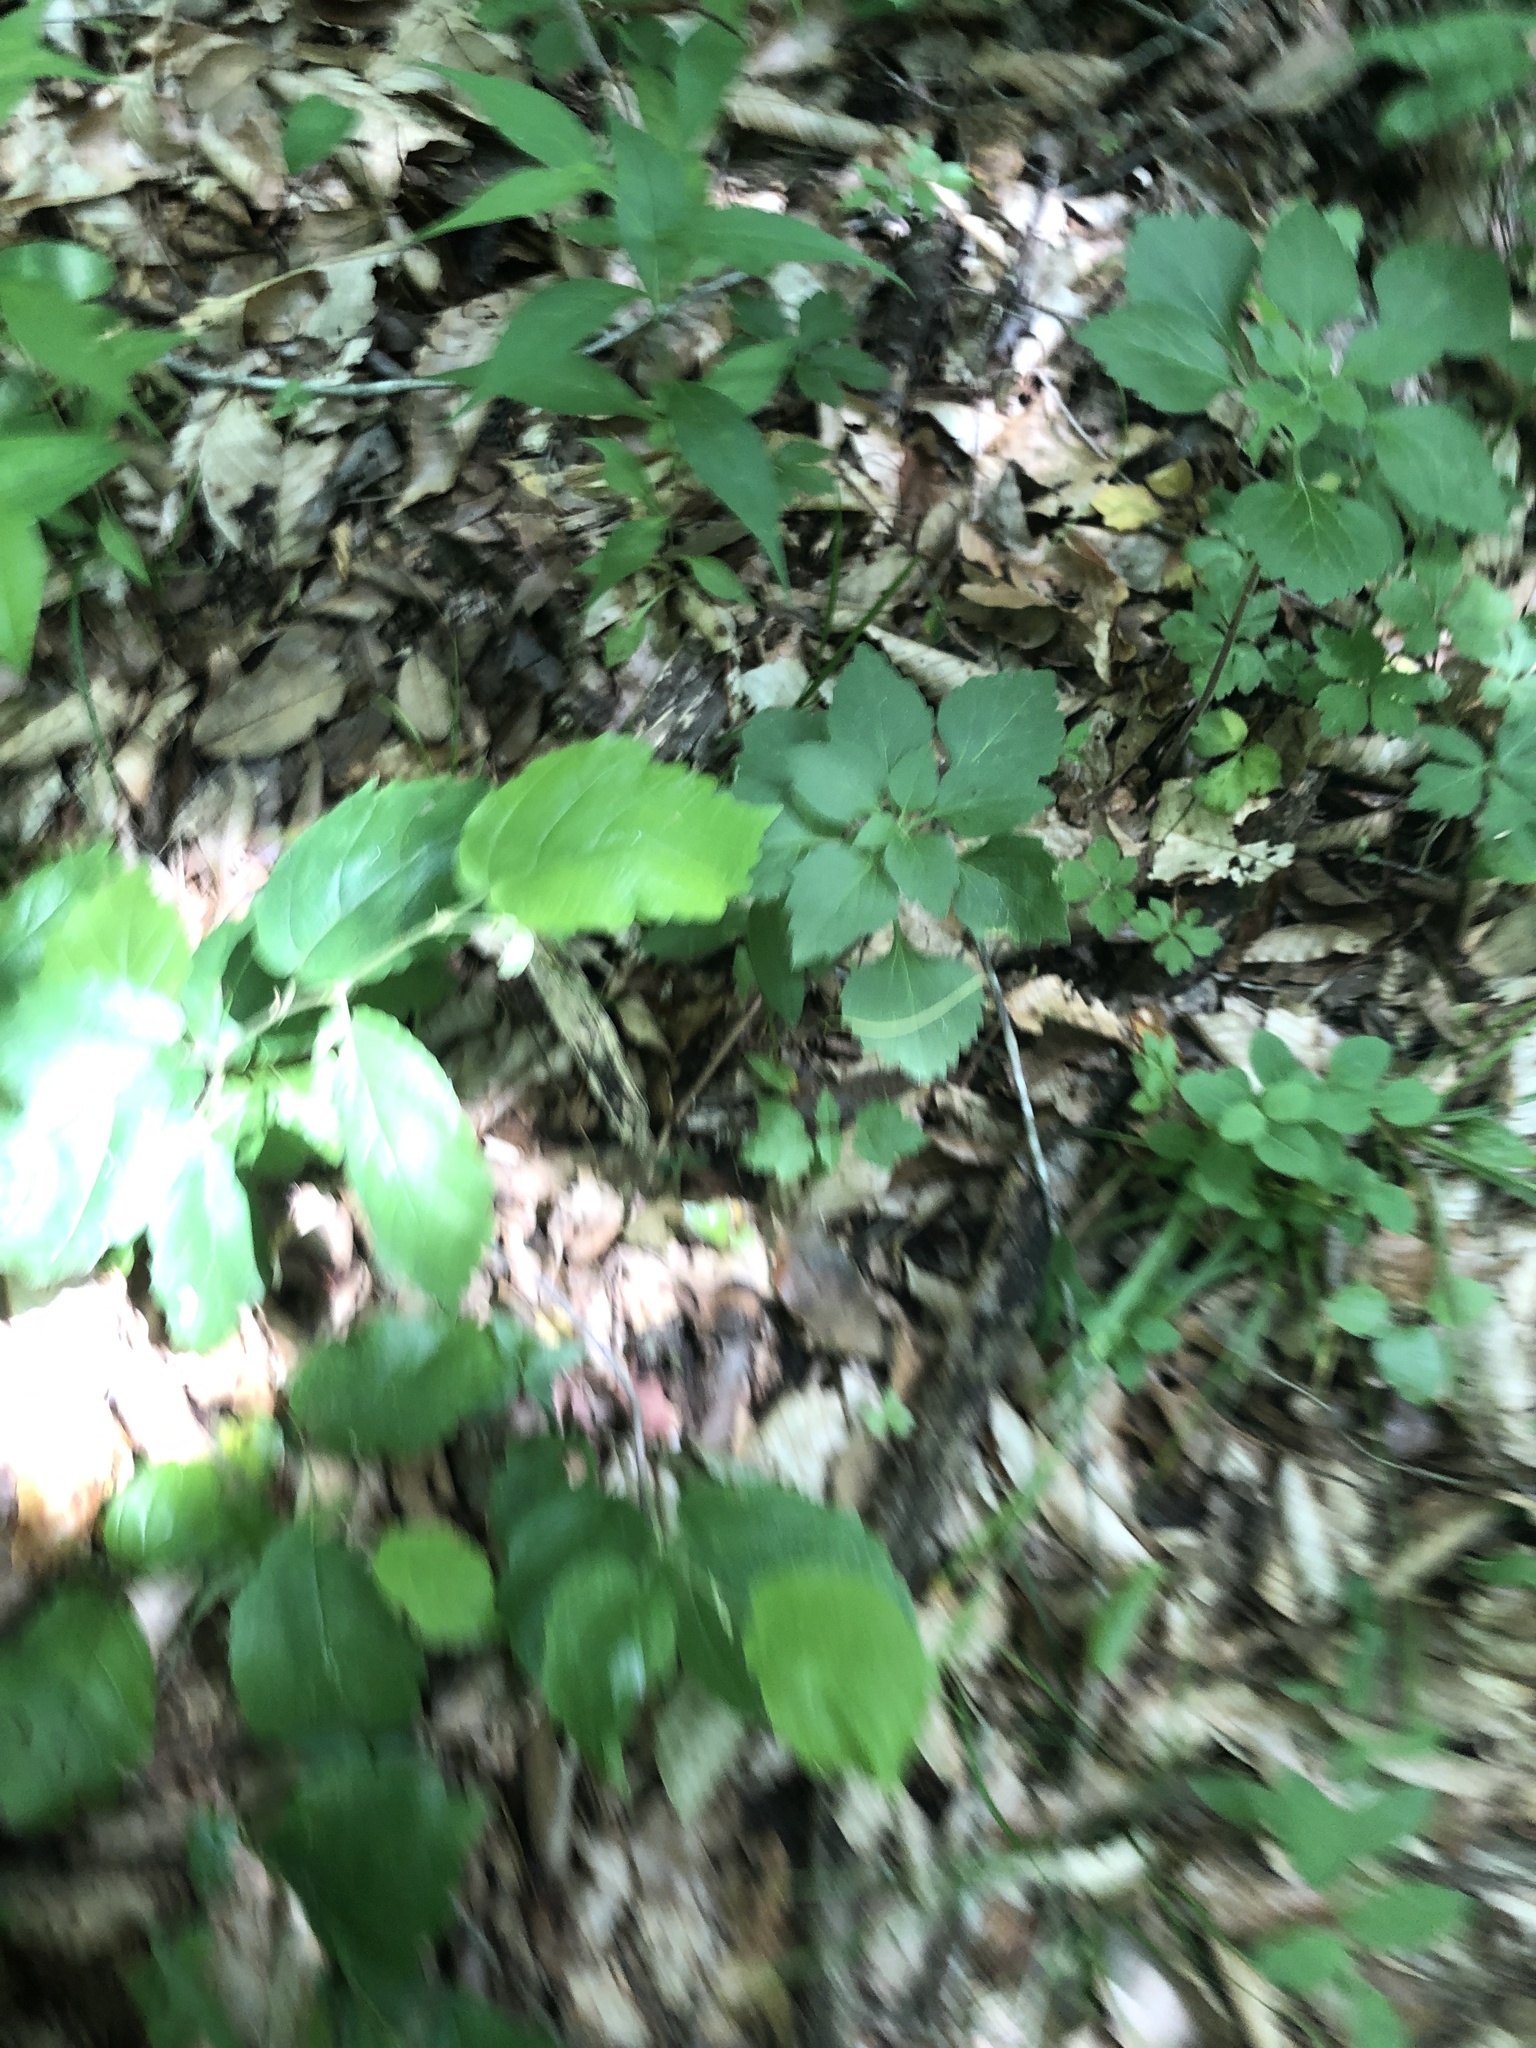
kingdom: Plantae
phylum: Tracheophyta
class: Magnoliopsida
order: Buxales
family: Buxaceae
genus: Pachysandra
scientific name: Pachysandra procumbens
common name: Mountain-spurge
